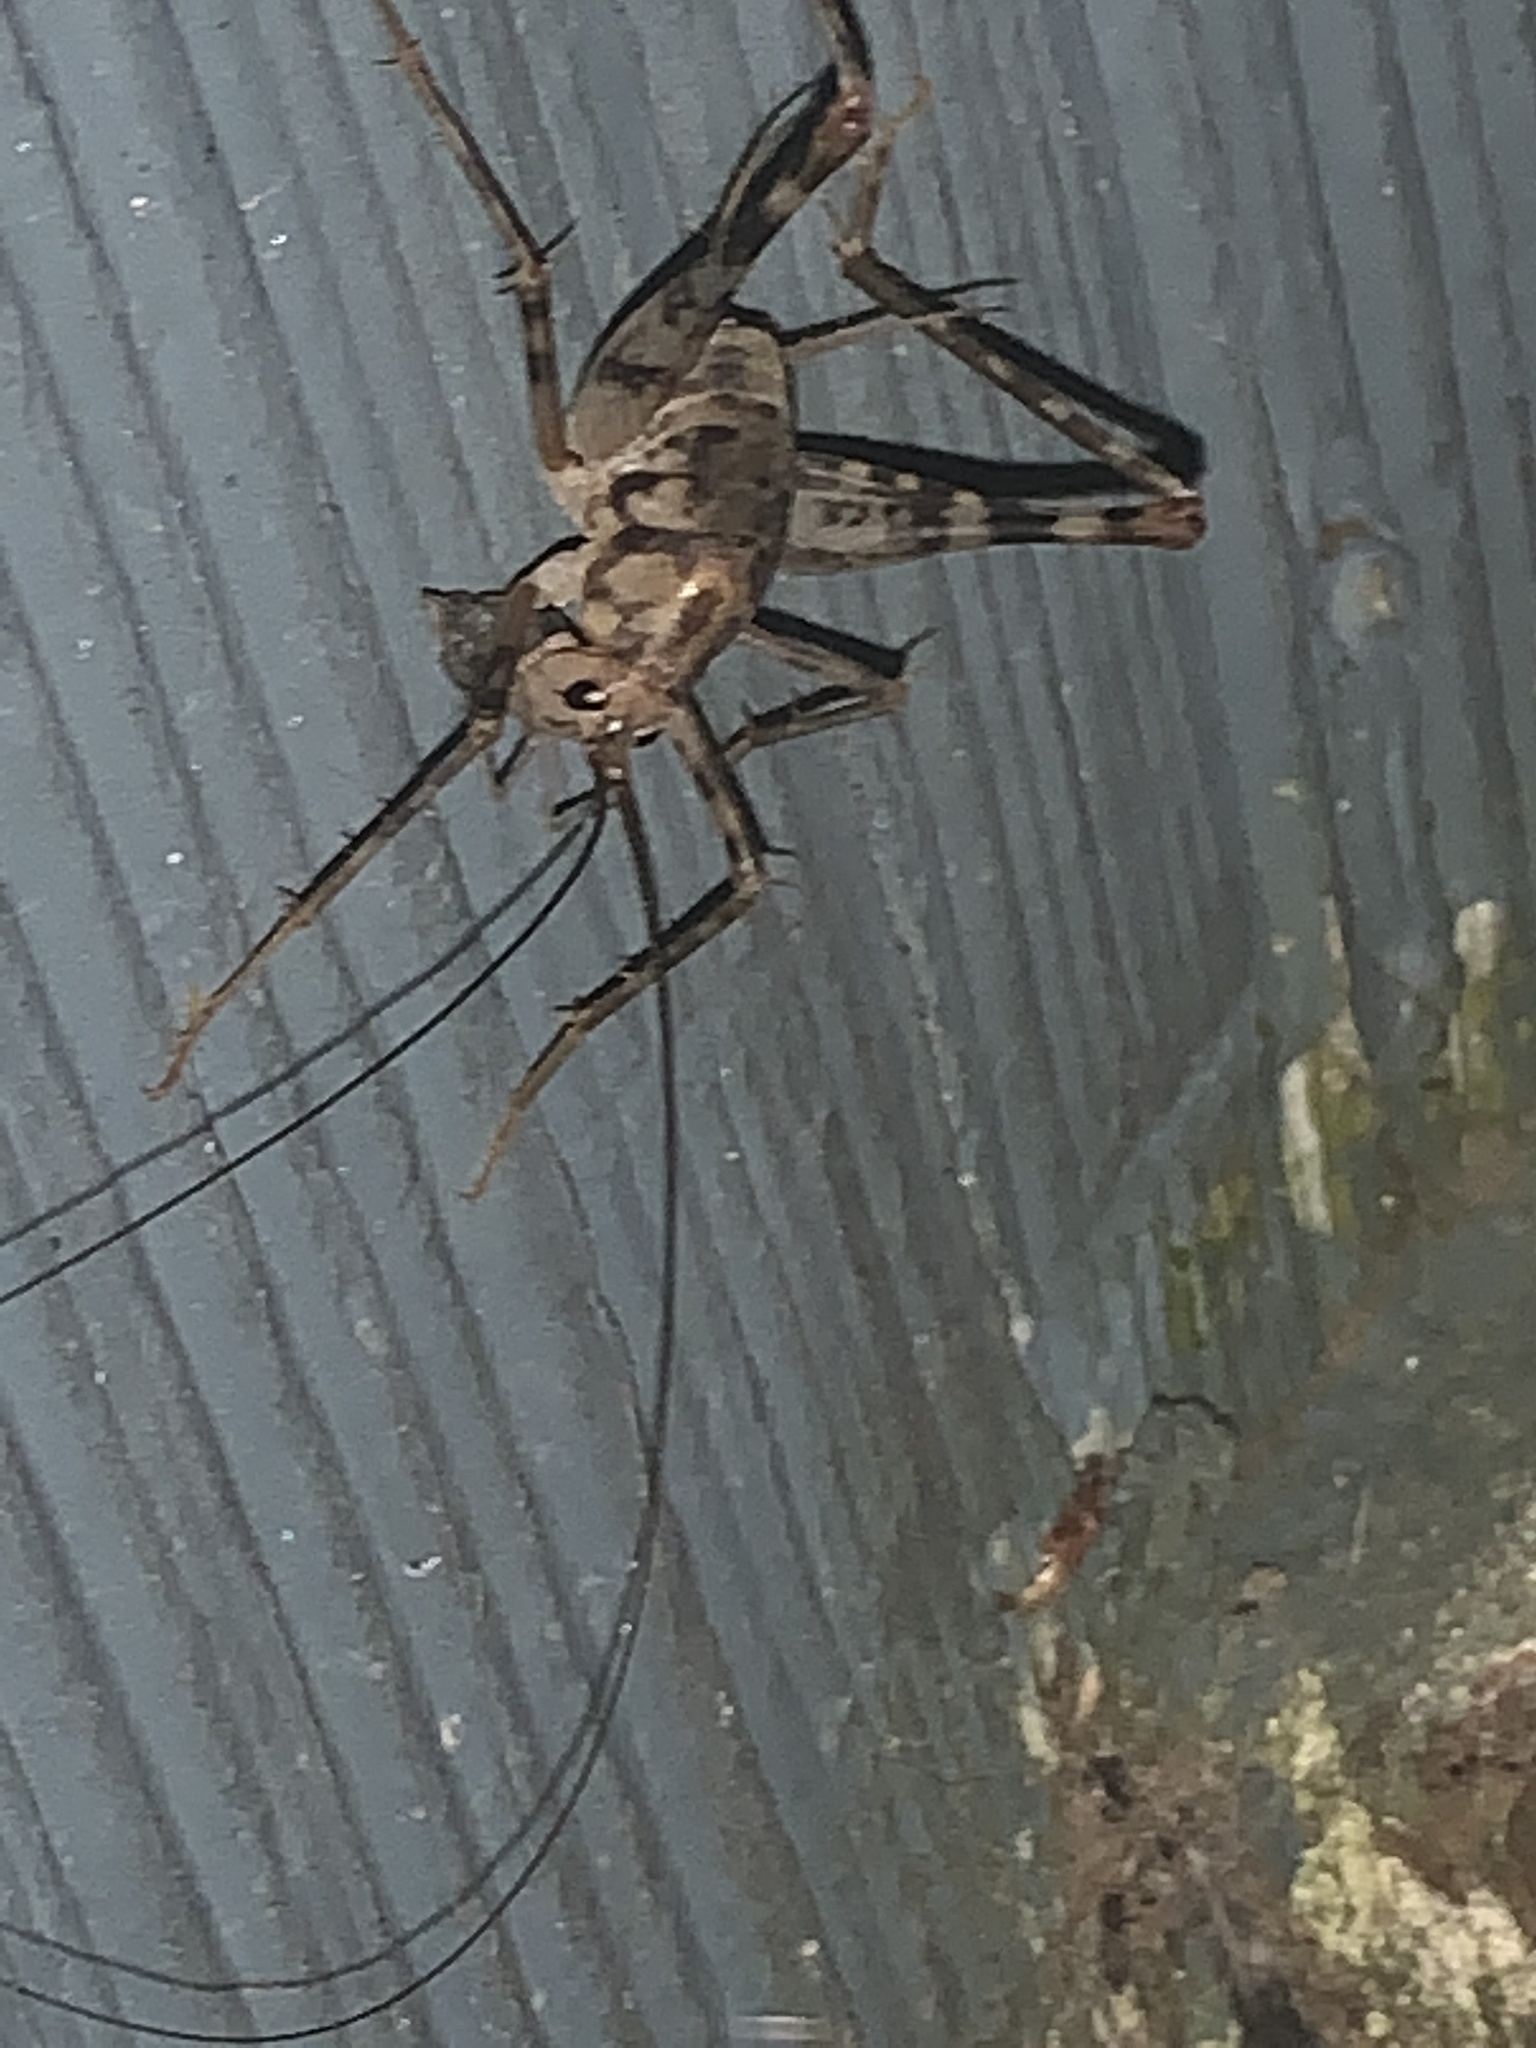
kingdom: Animalia
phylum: Arthropoda
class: Insecta
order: Orthoptera
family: Rhaphidophoridae
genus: Tachycines
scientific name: Tachycines asynamorus
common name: Greenhouse camel cricket
